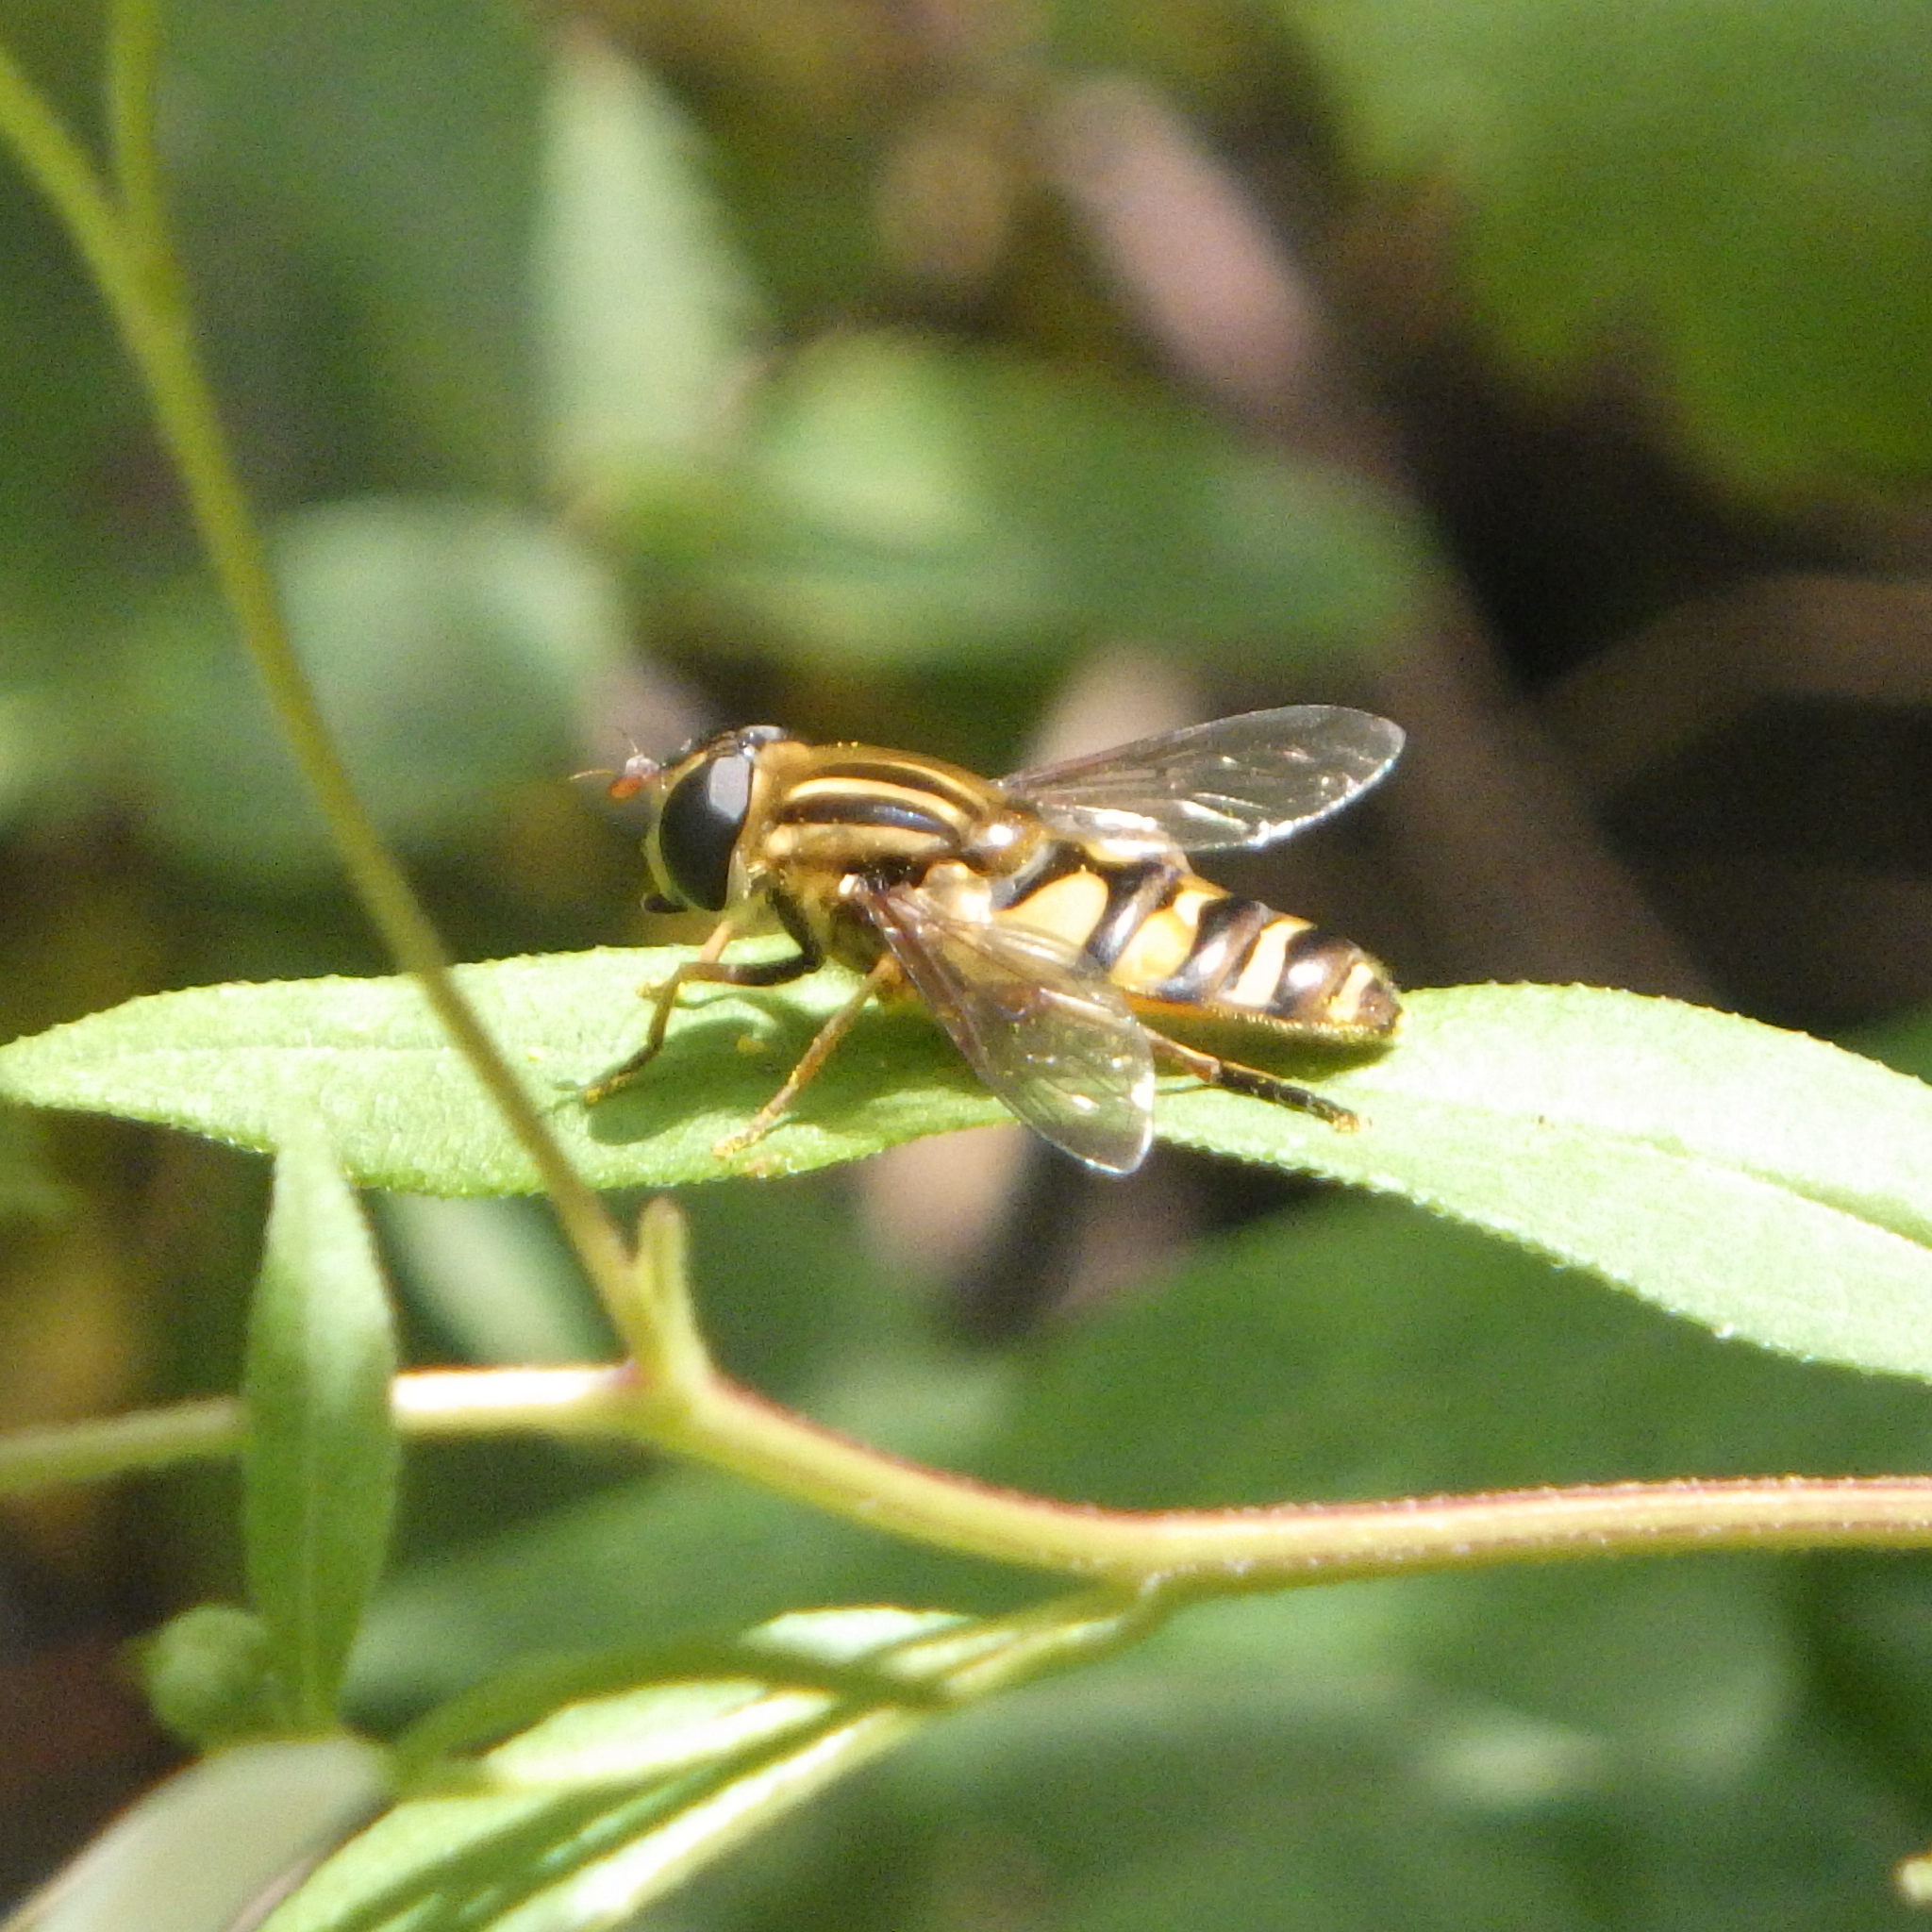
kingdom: Animalia
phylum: Arthropoda
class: Insecta
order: Diptera
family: Syrphidae
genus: Helophilus
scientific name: Helophilus fasciatus
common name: Narrow-headed marsh fly
